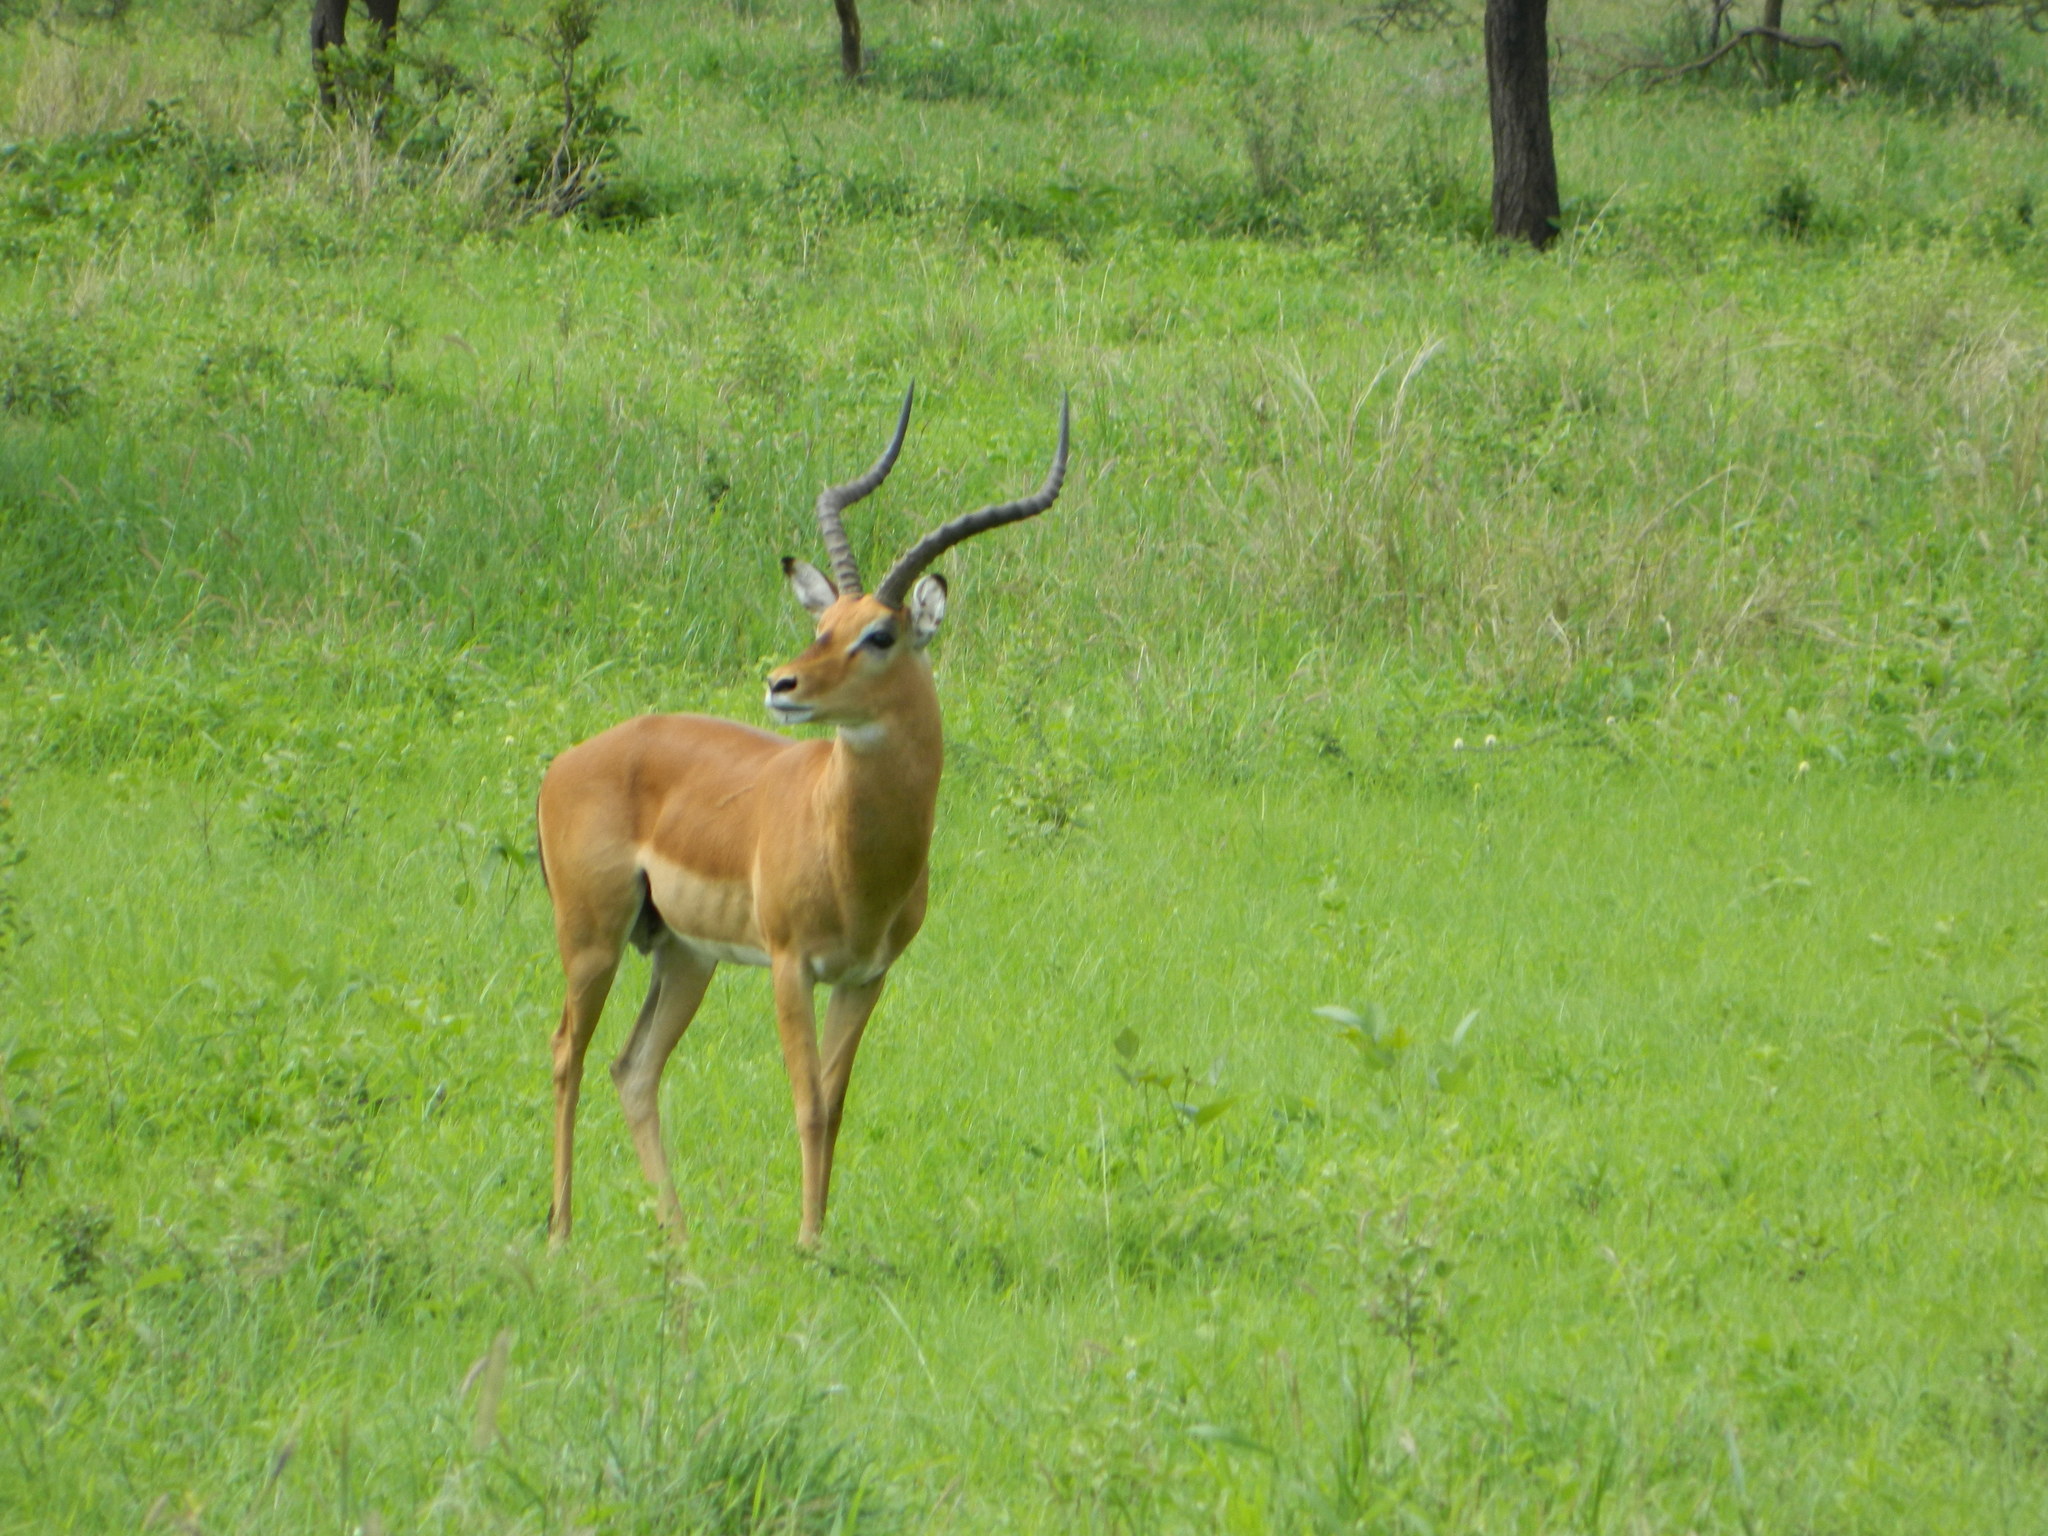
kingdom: Animalia
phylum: Chordata
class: Mammalia
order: Artiodactyla
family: Bovidae
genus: Aepyceros
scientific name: Aepyceros melampus
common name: Impala
